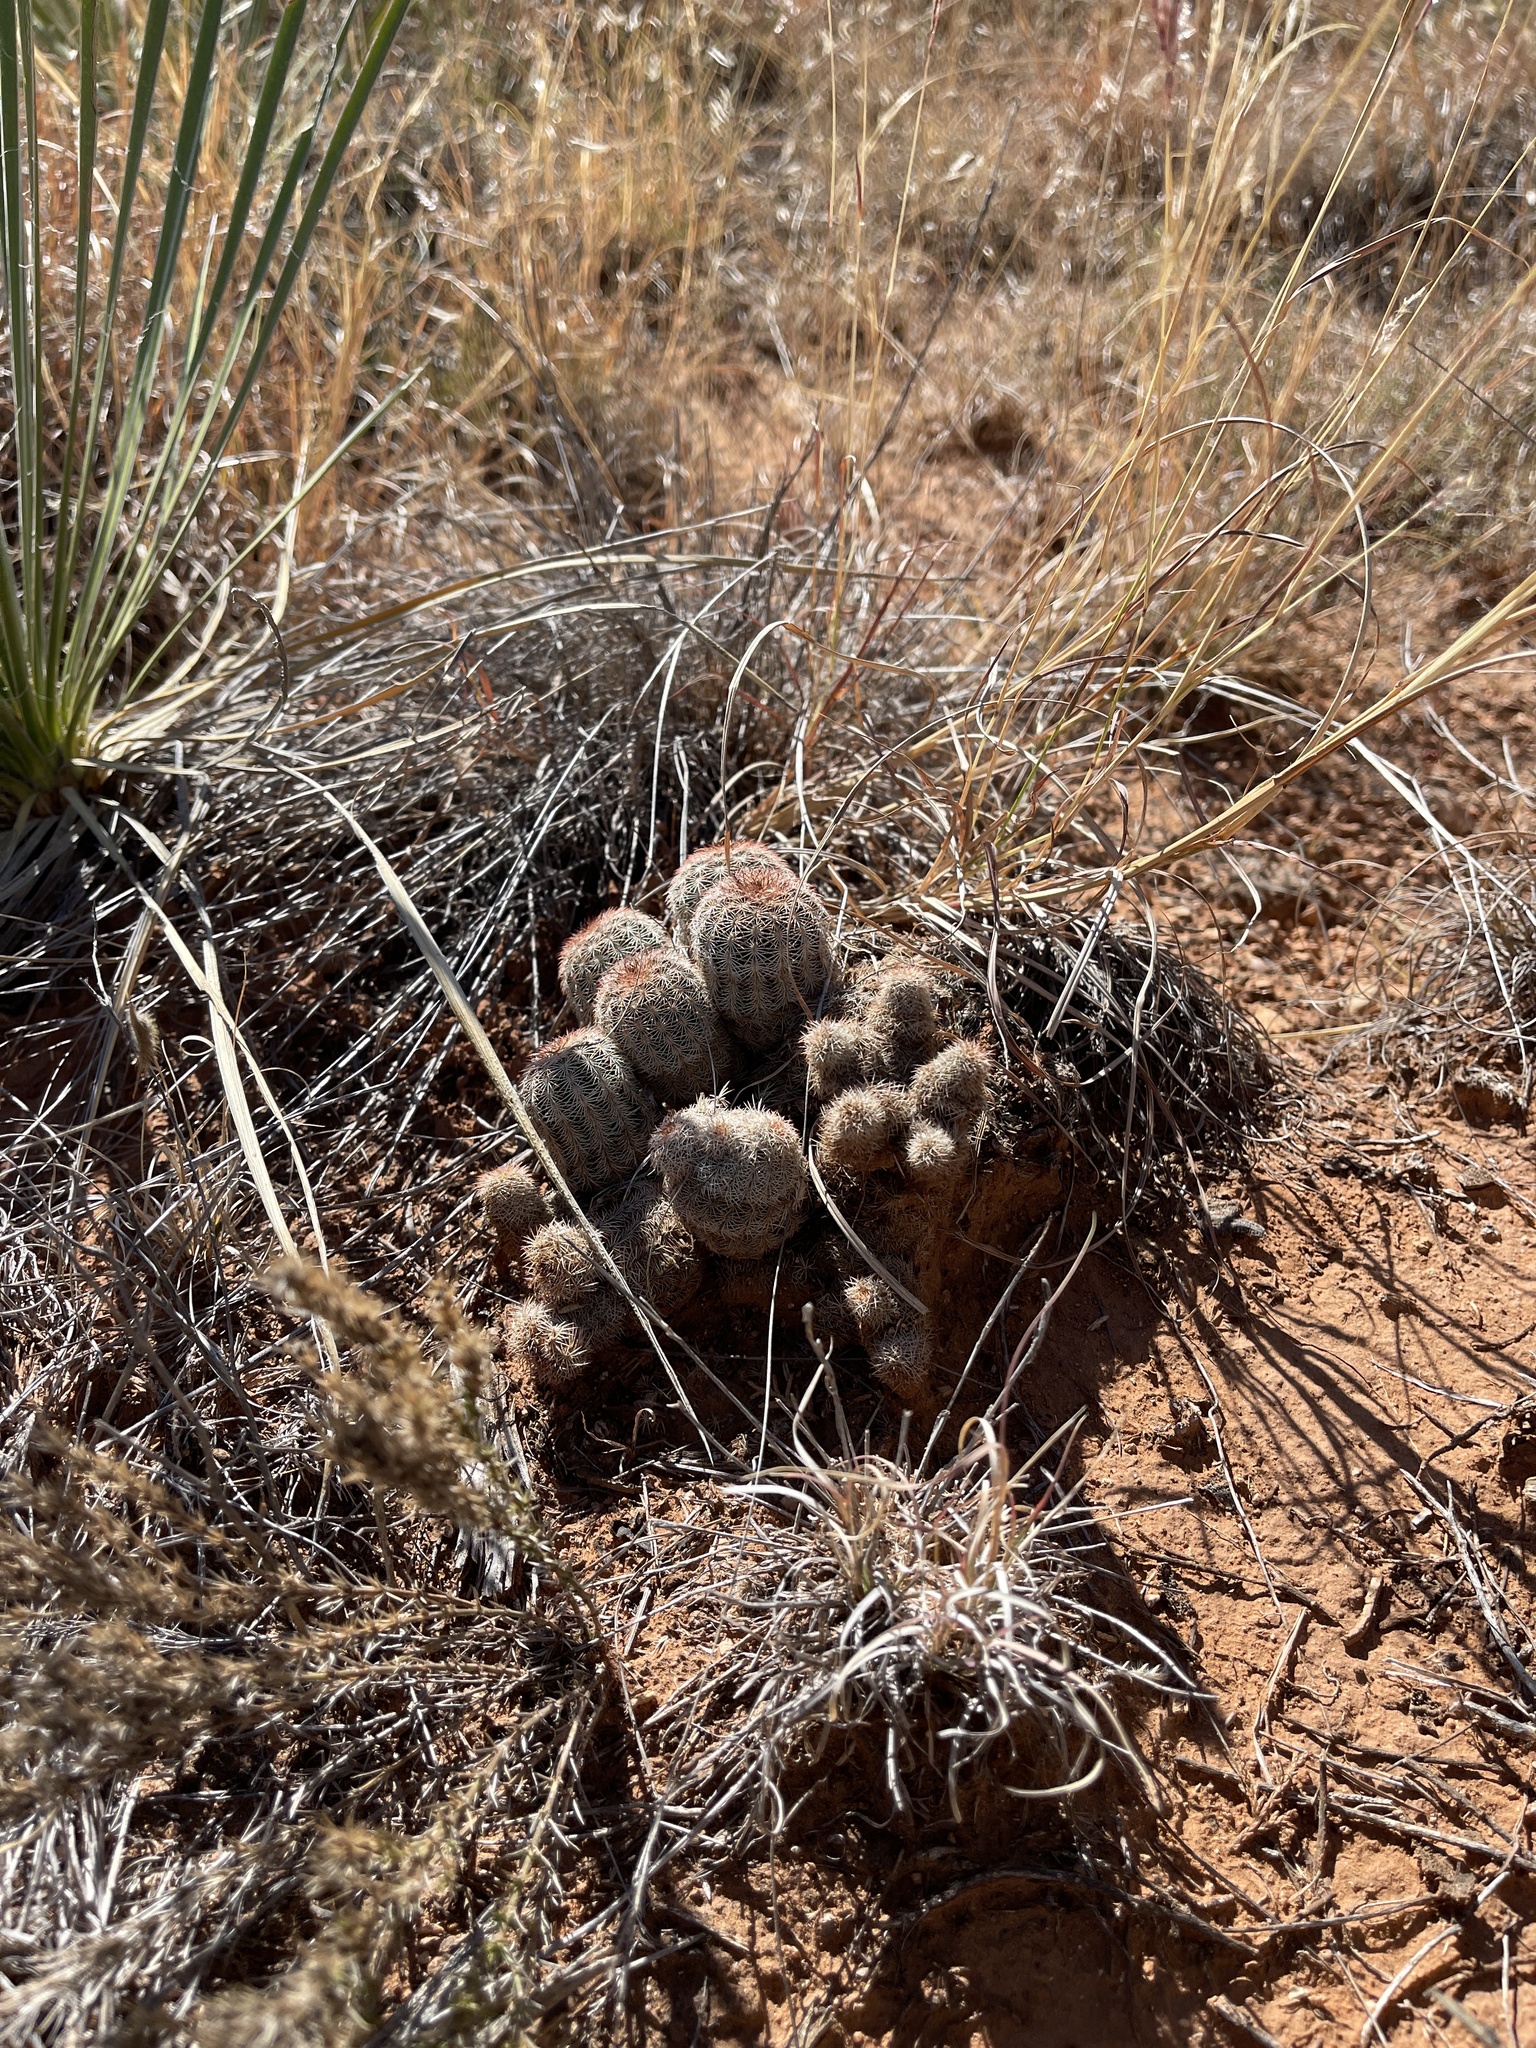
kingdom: Plantae
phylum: Tracheophyta
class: Magnoliopsida
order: Caryophyllales
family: Cactaceae
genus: Echinocereus
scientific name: Echinocereus reichenbachii
